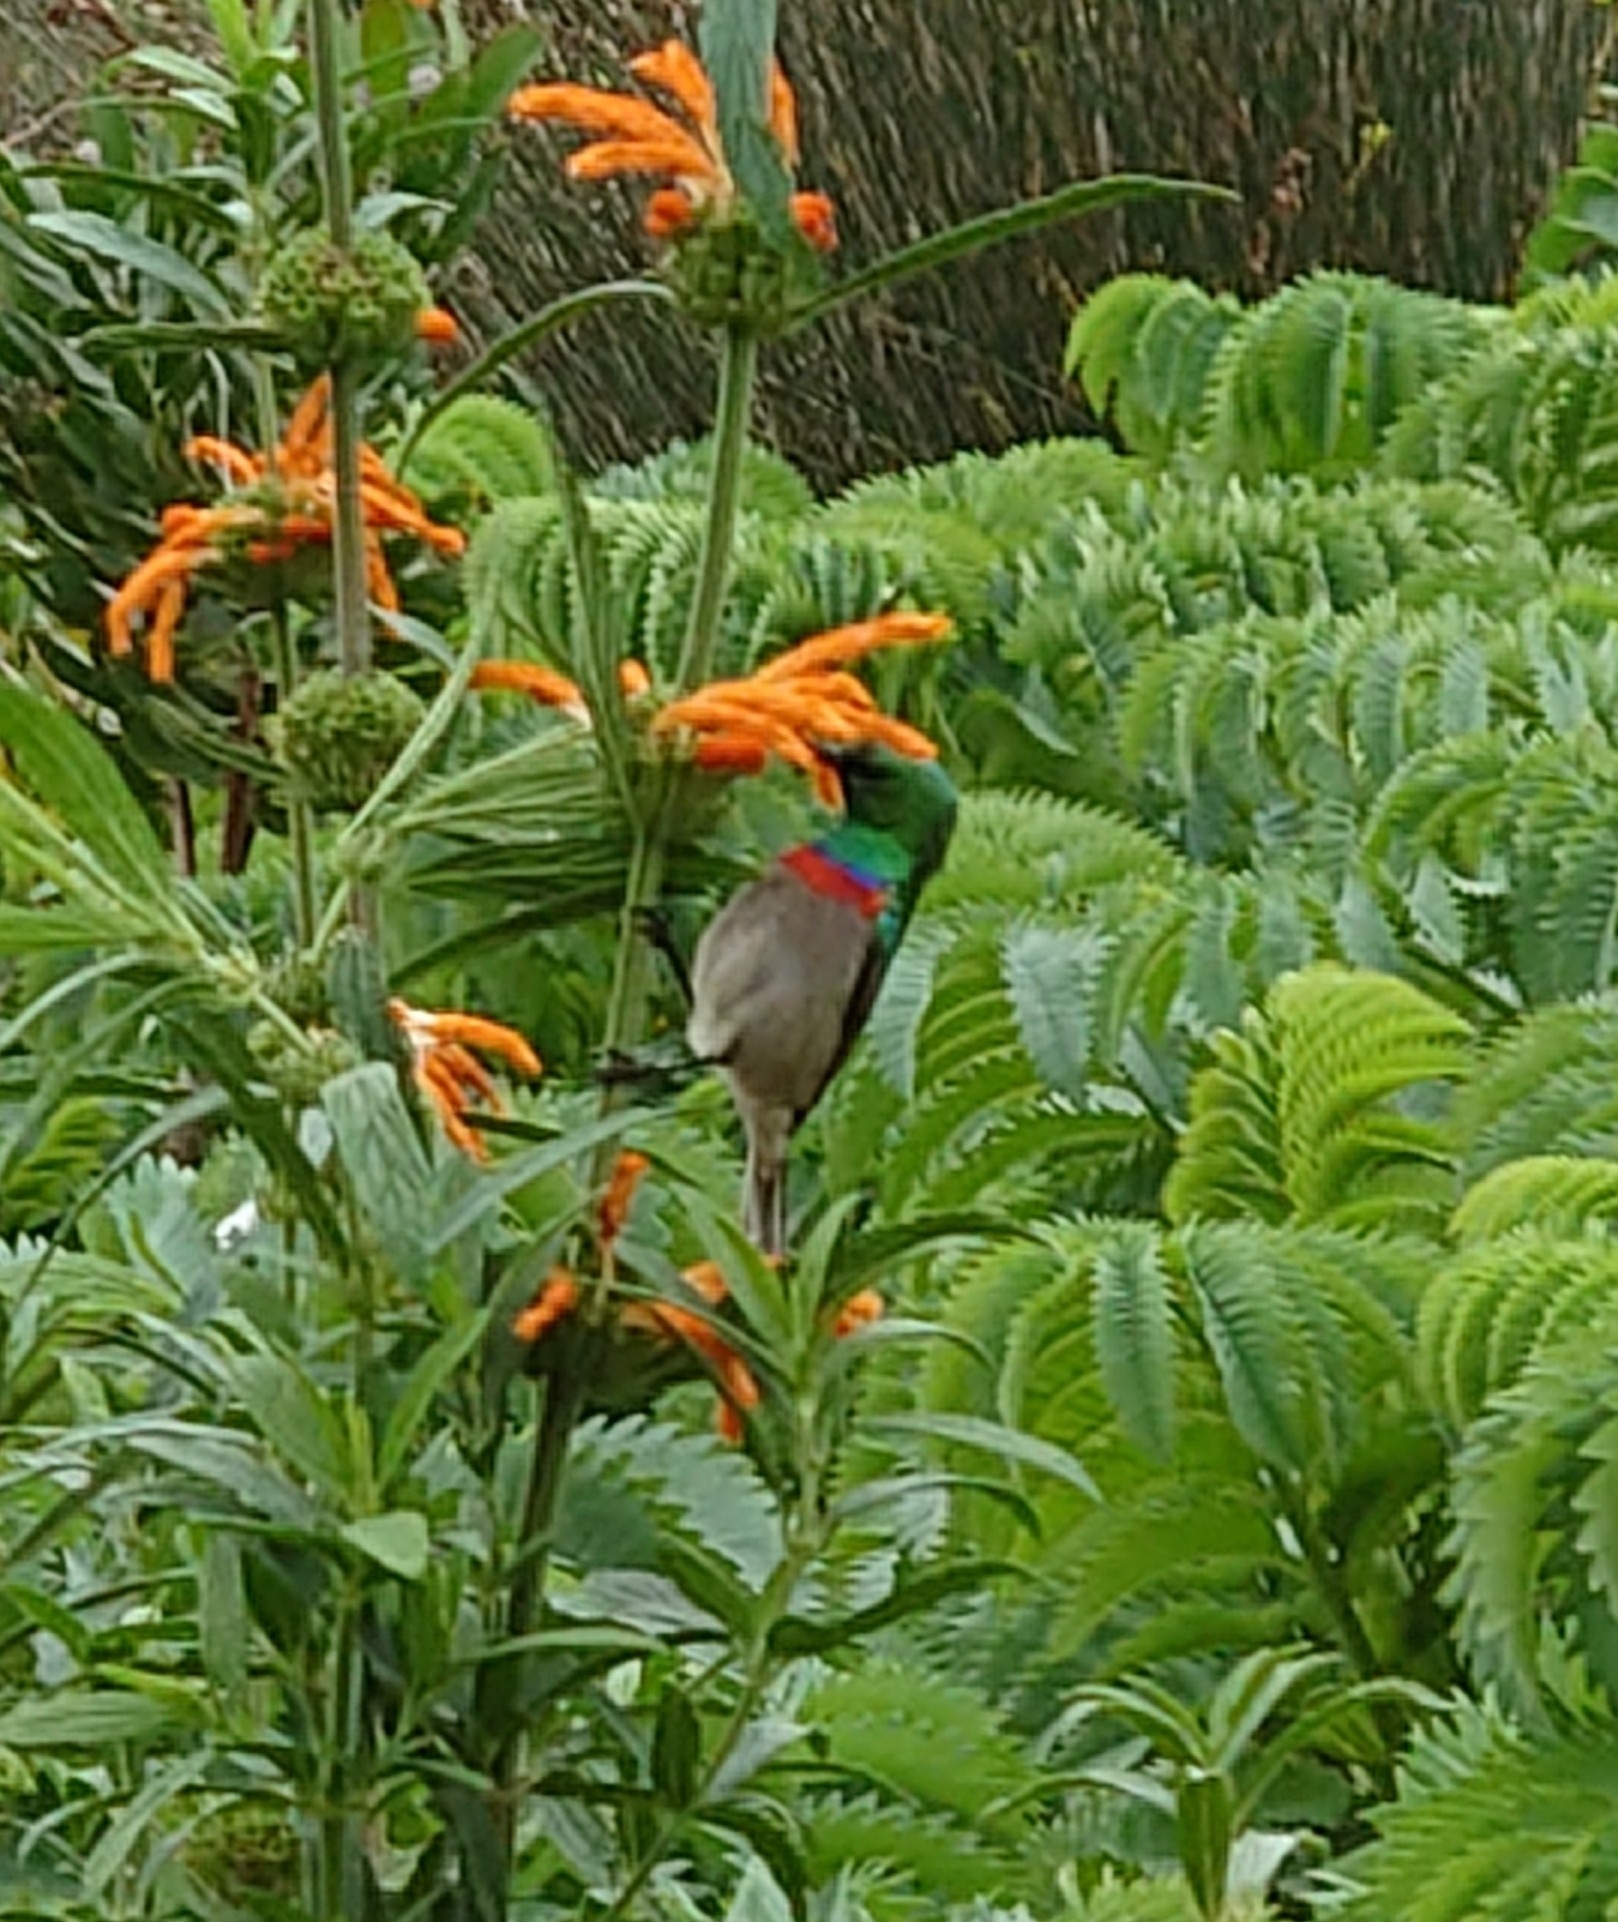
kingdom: Animalia
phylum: Chordata
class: Aves
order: Passeriformes
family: Nectariniidae
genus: Cinnyris
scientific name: Cinnyris chalybeus
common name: Southern double-collared sunbird
